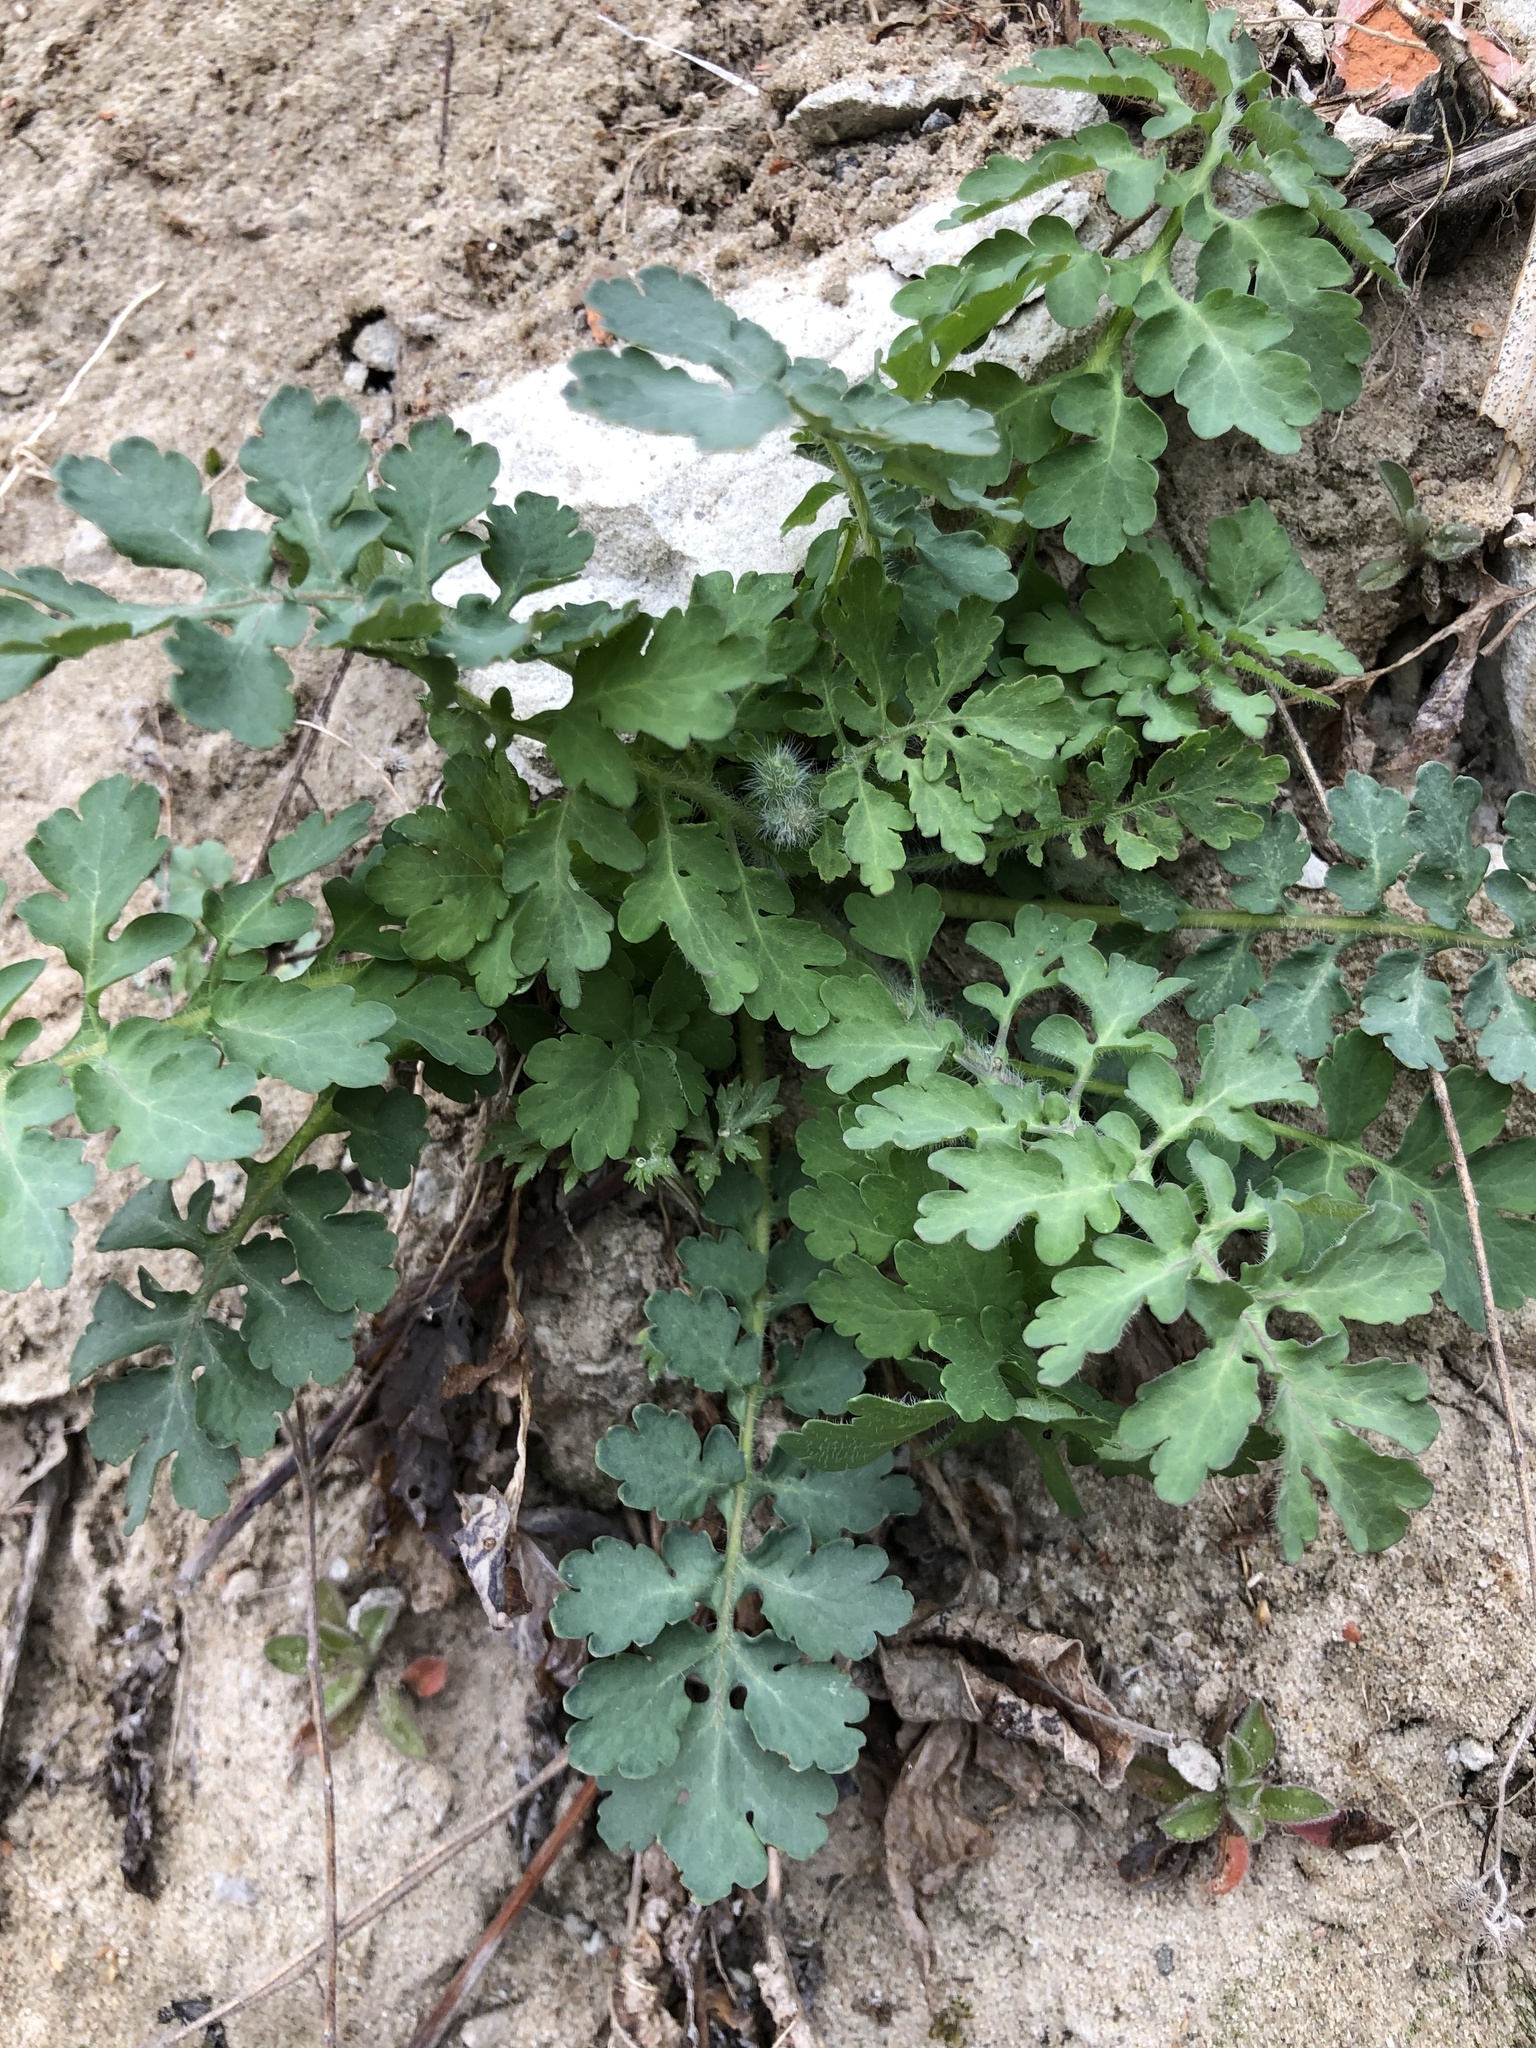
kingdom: Plantae
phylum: Tracheophyta
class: Magnoliopsida
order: Ranunculales
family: Papaveraceae
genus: Chelidonium
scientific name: Chelidonium majus
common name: Greater celandine
